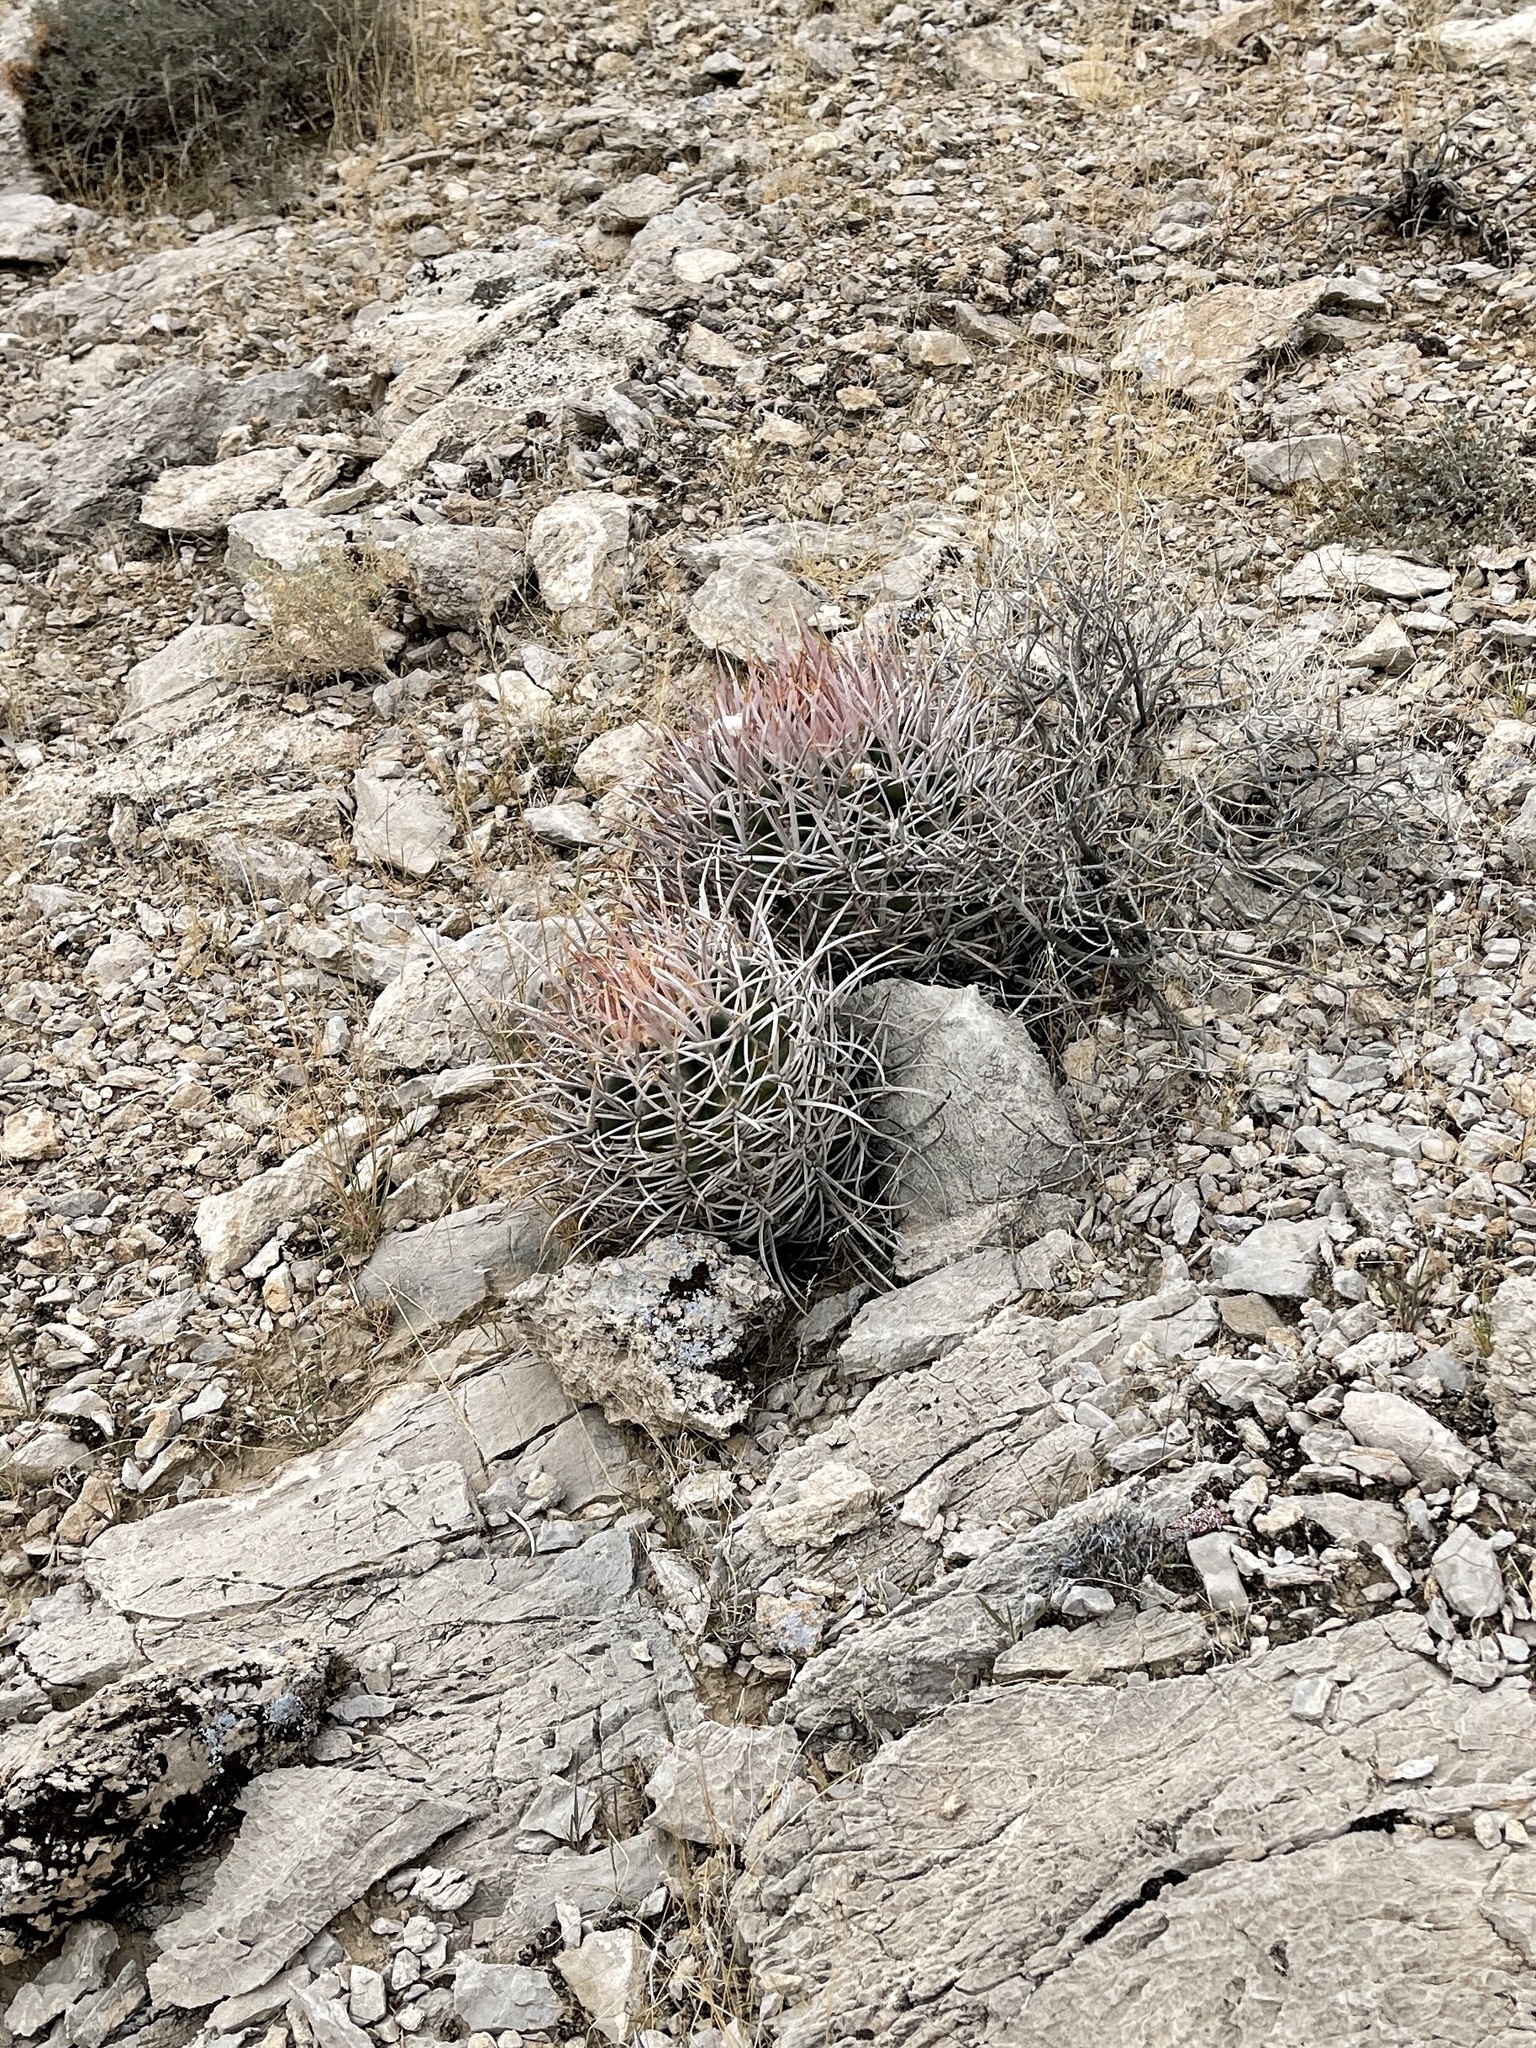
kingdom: Plantae
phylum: Tracheophyta
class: Magnoliopsida
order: Caryophyllales
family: Cactaceae
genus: Echinocactus
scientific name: Echinocactus polycephalus
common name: Cottontop cactus
